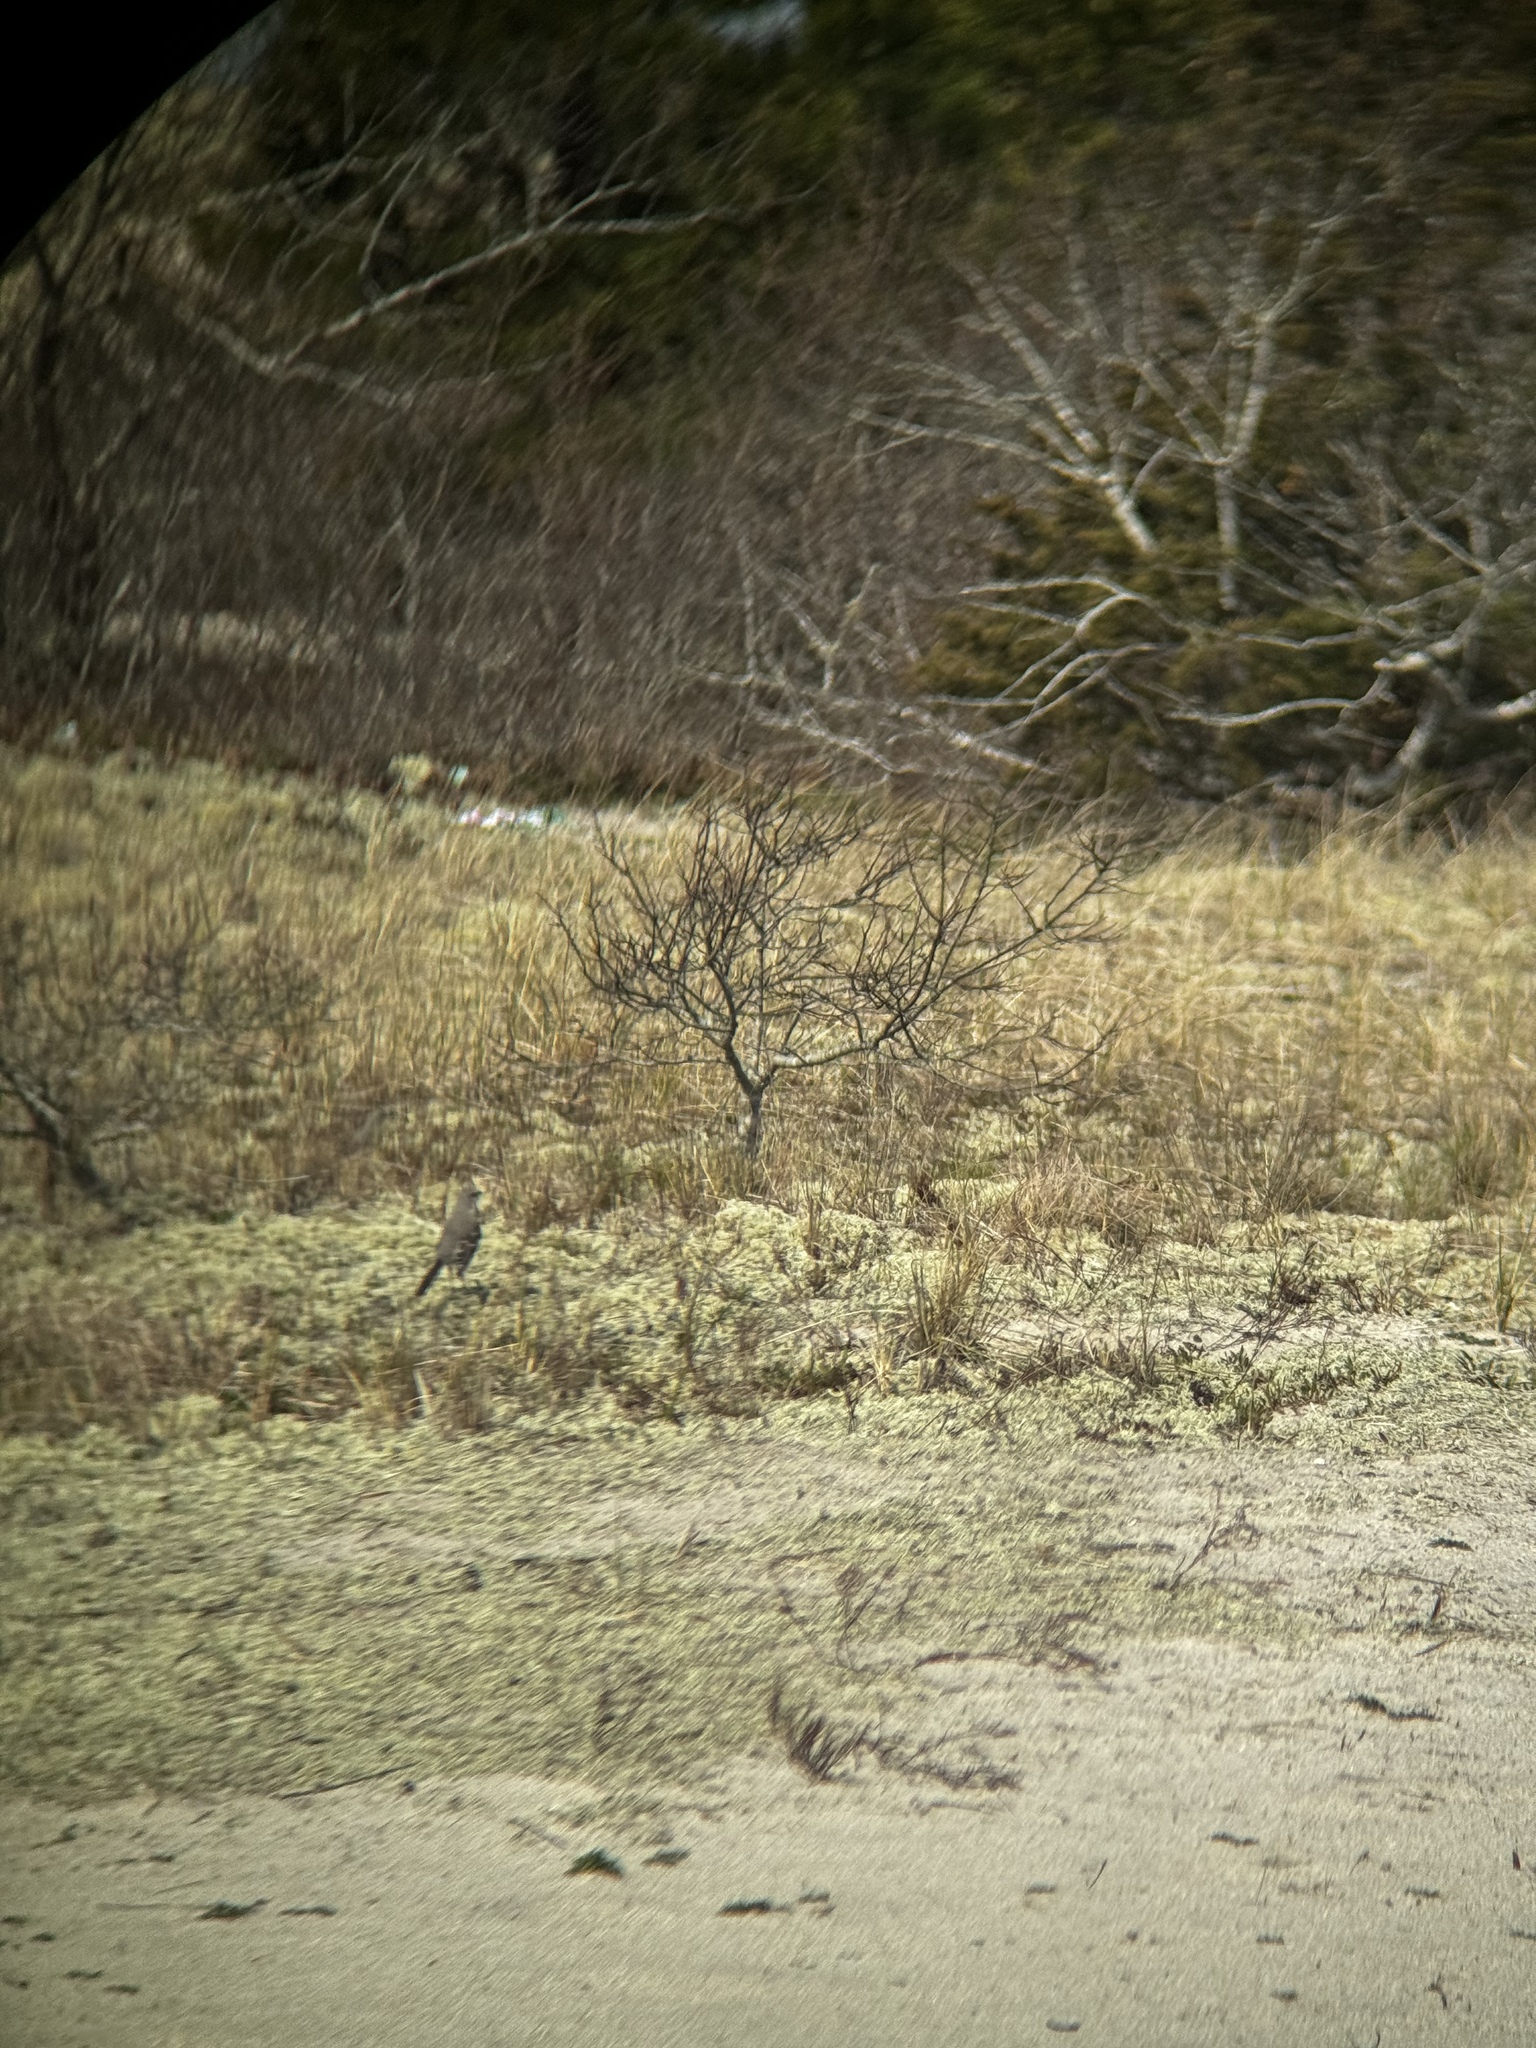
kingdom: Animalia
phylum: Chordata
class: Aves
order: Passeriformes
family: Mimidae
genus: Mimus
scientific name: Mimus polyglottos
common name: Northern mockingbird
